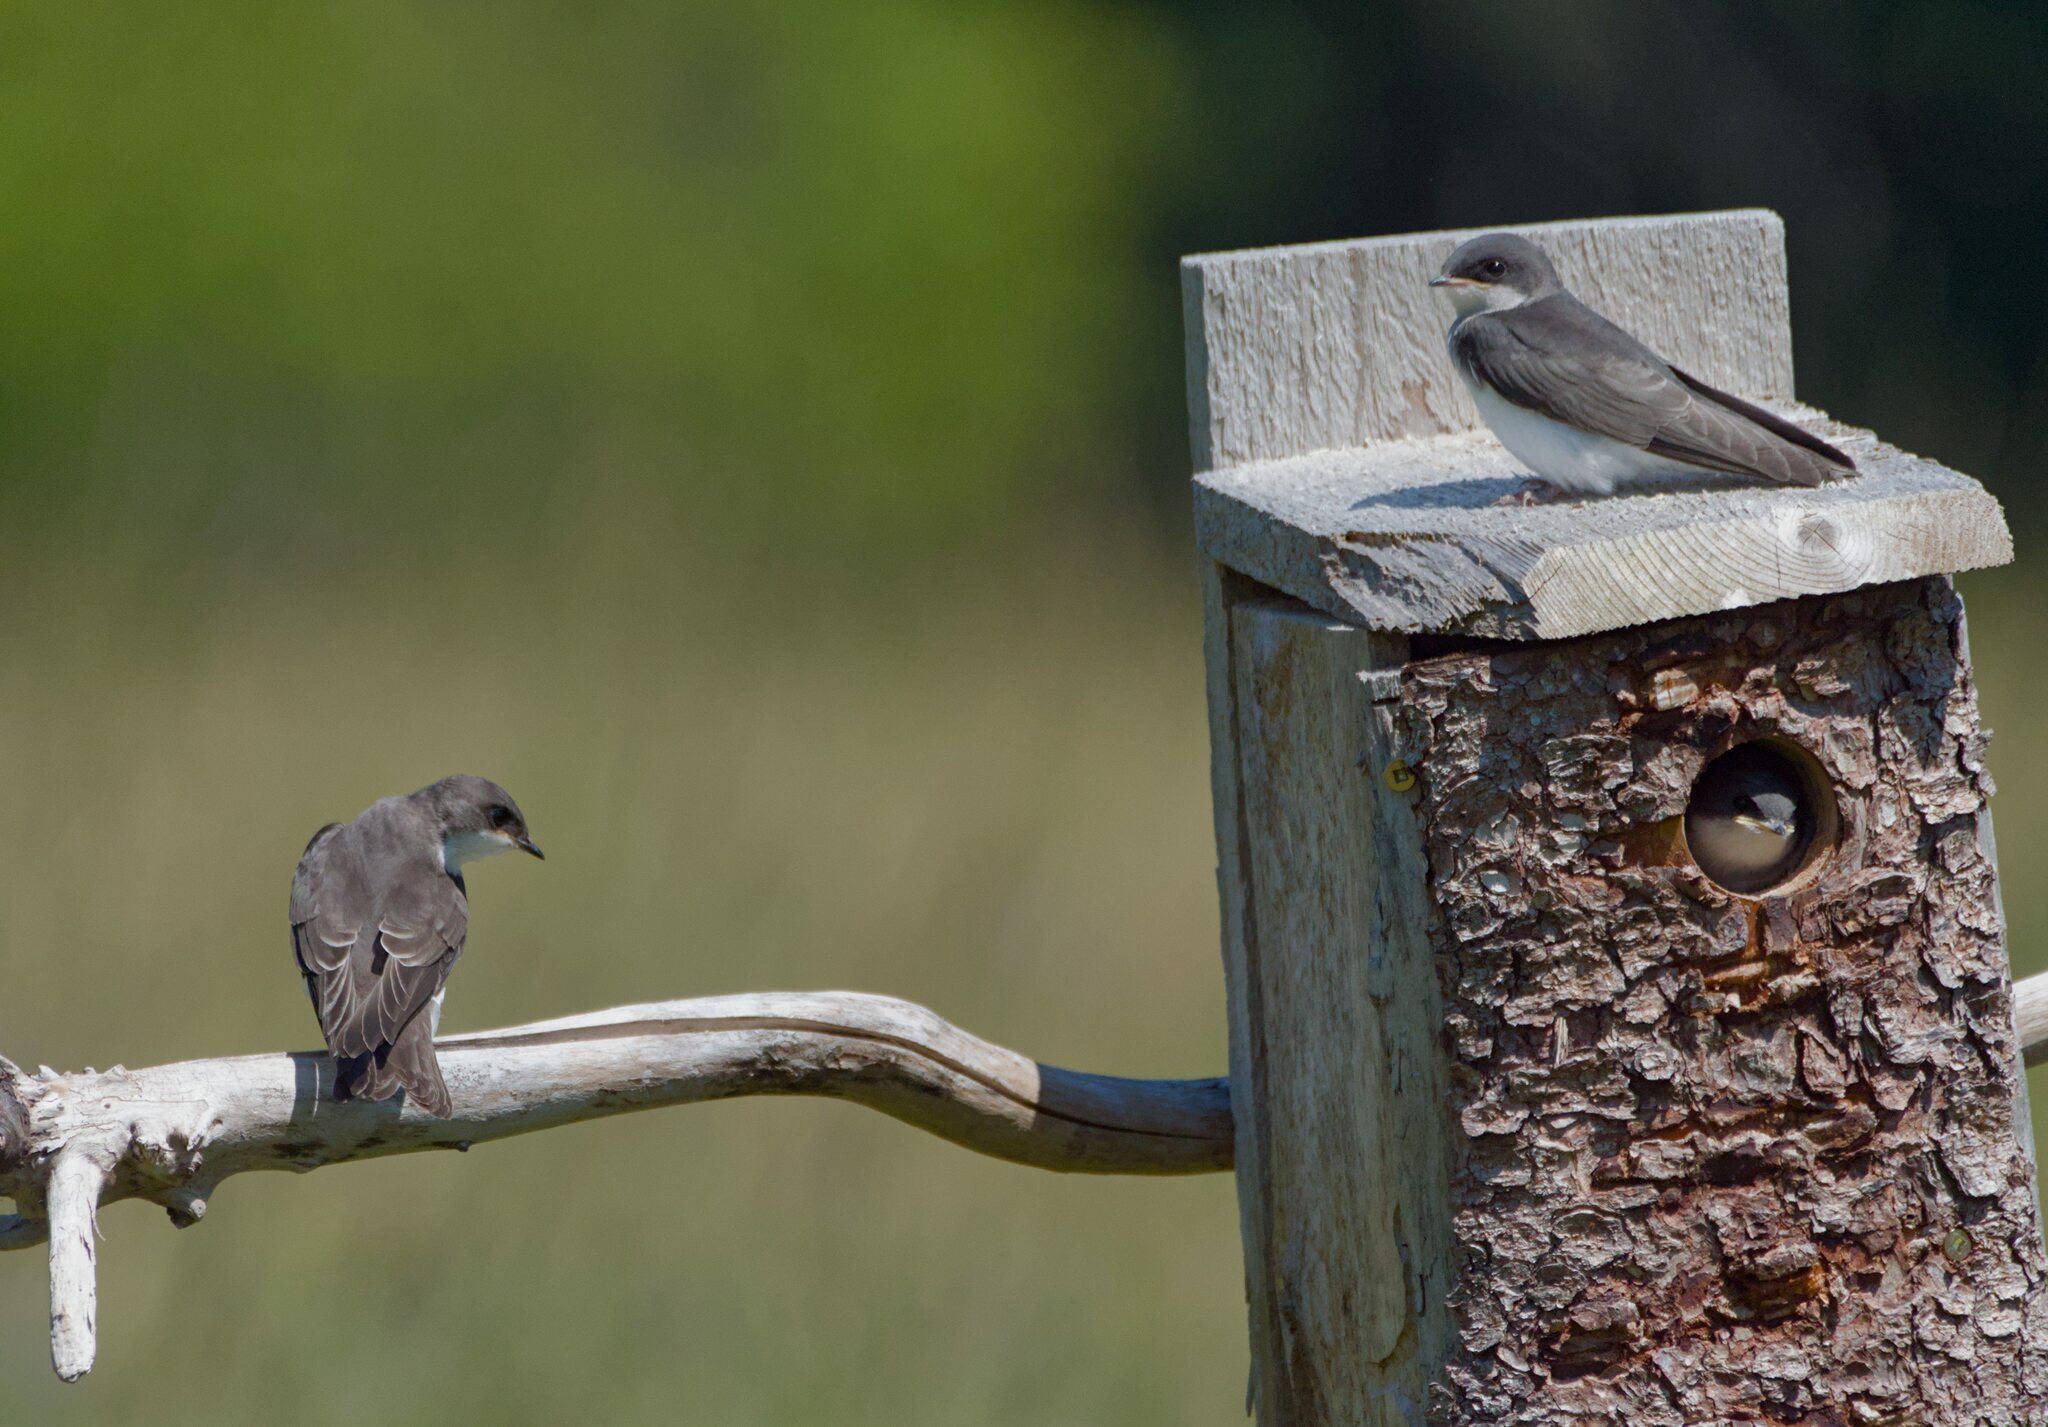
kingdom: Animalia
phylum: Chordata
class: Aves
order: Passeriformes
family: Hirundinidae
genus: Tachycineta
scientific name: Tachycineta bicolor
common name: Tree swallow
